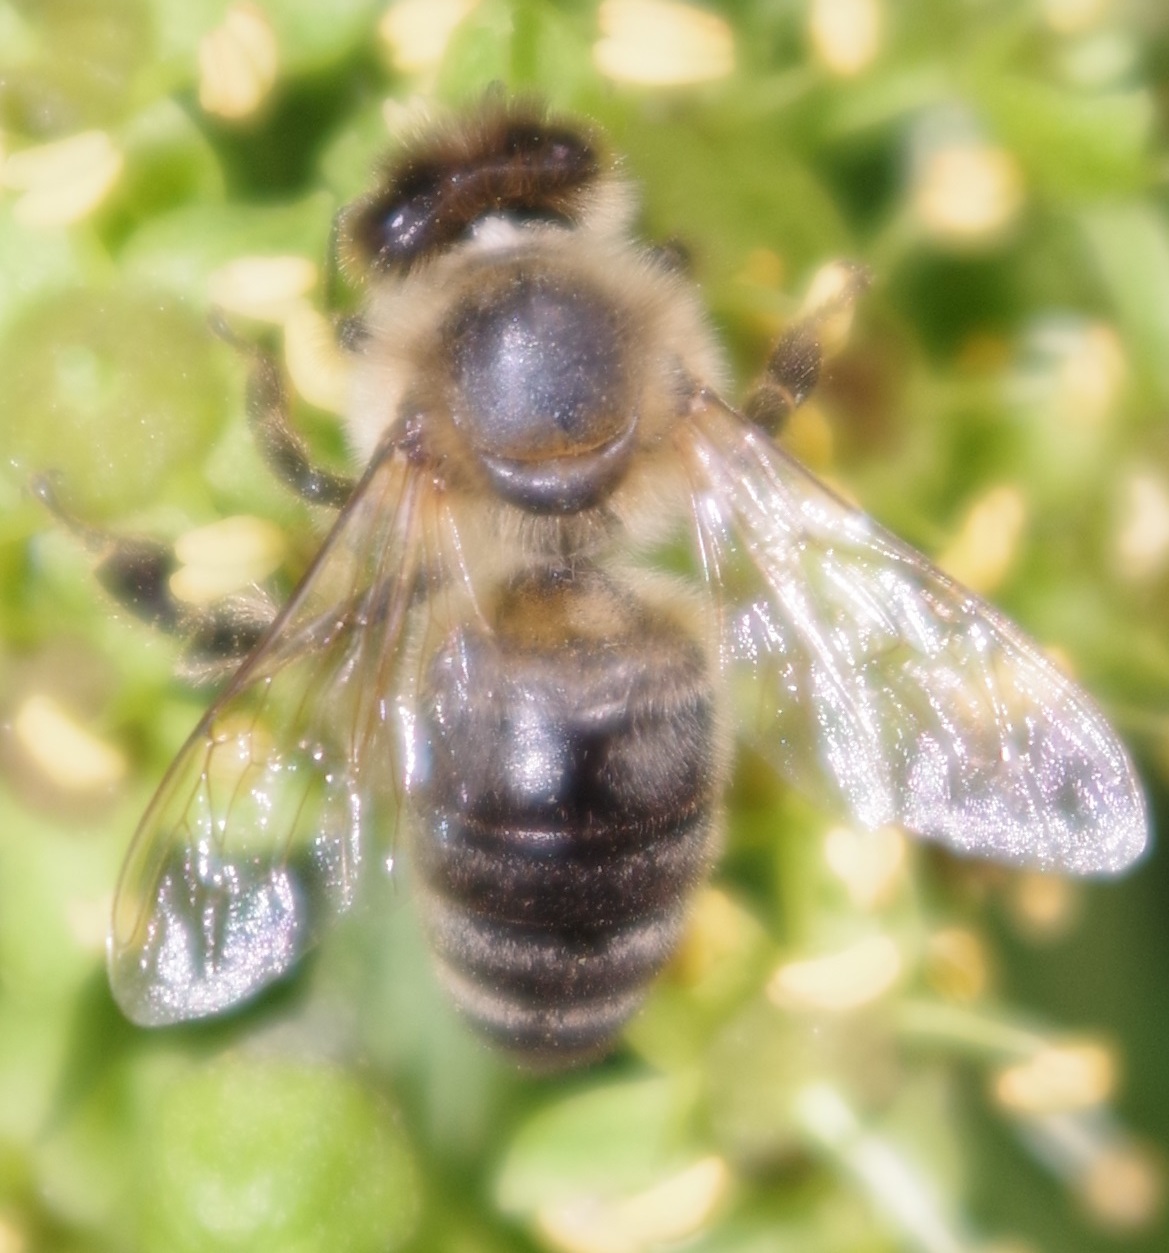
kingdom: Animalia
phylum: Arthropoda
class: Insecta
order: Hymenoptera
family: Apidae
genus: Apis
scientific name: Apis mellifera
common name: Honey bee
